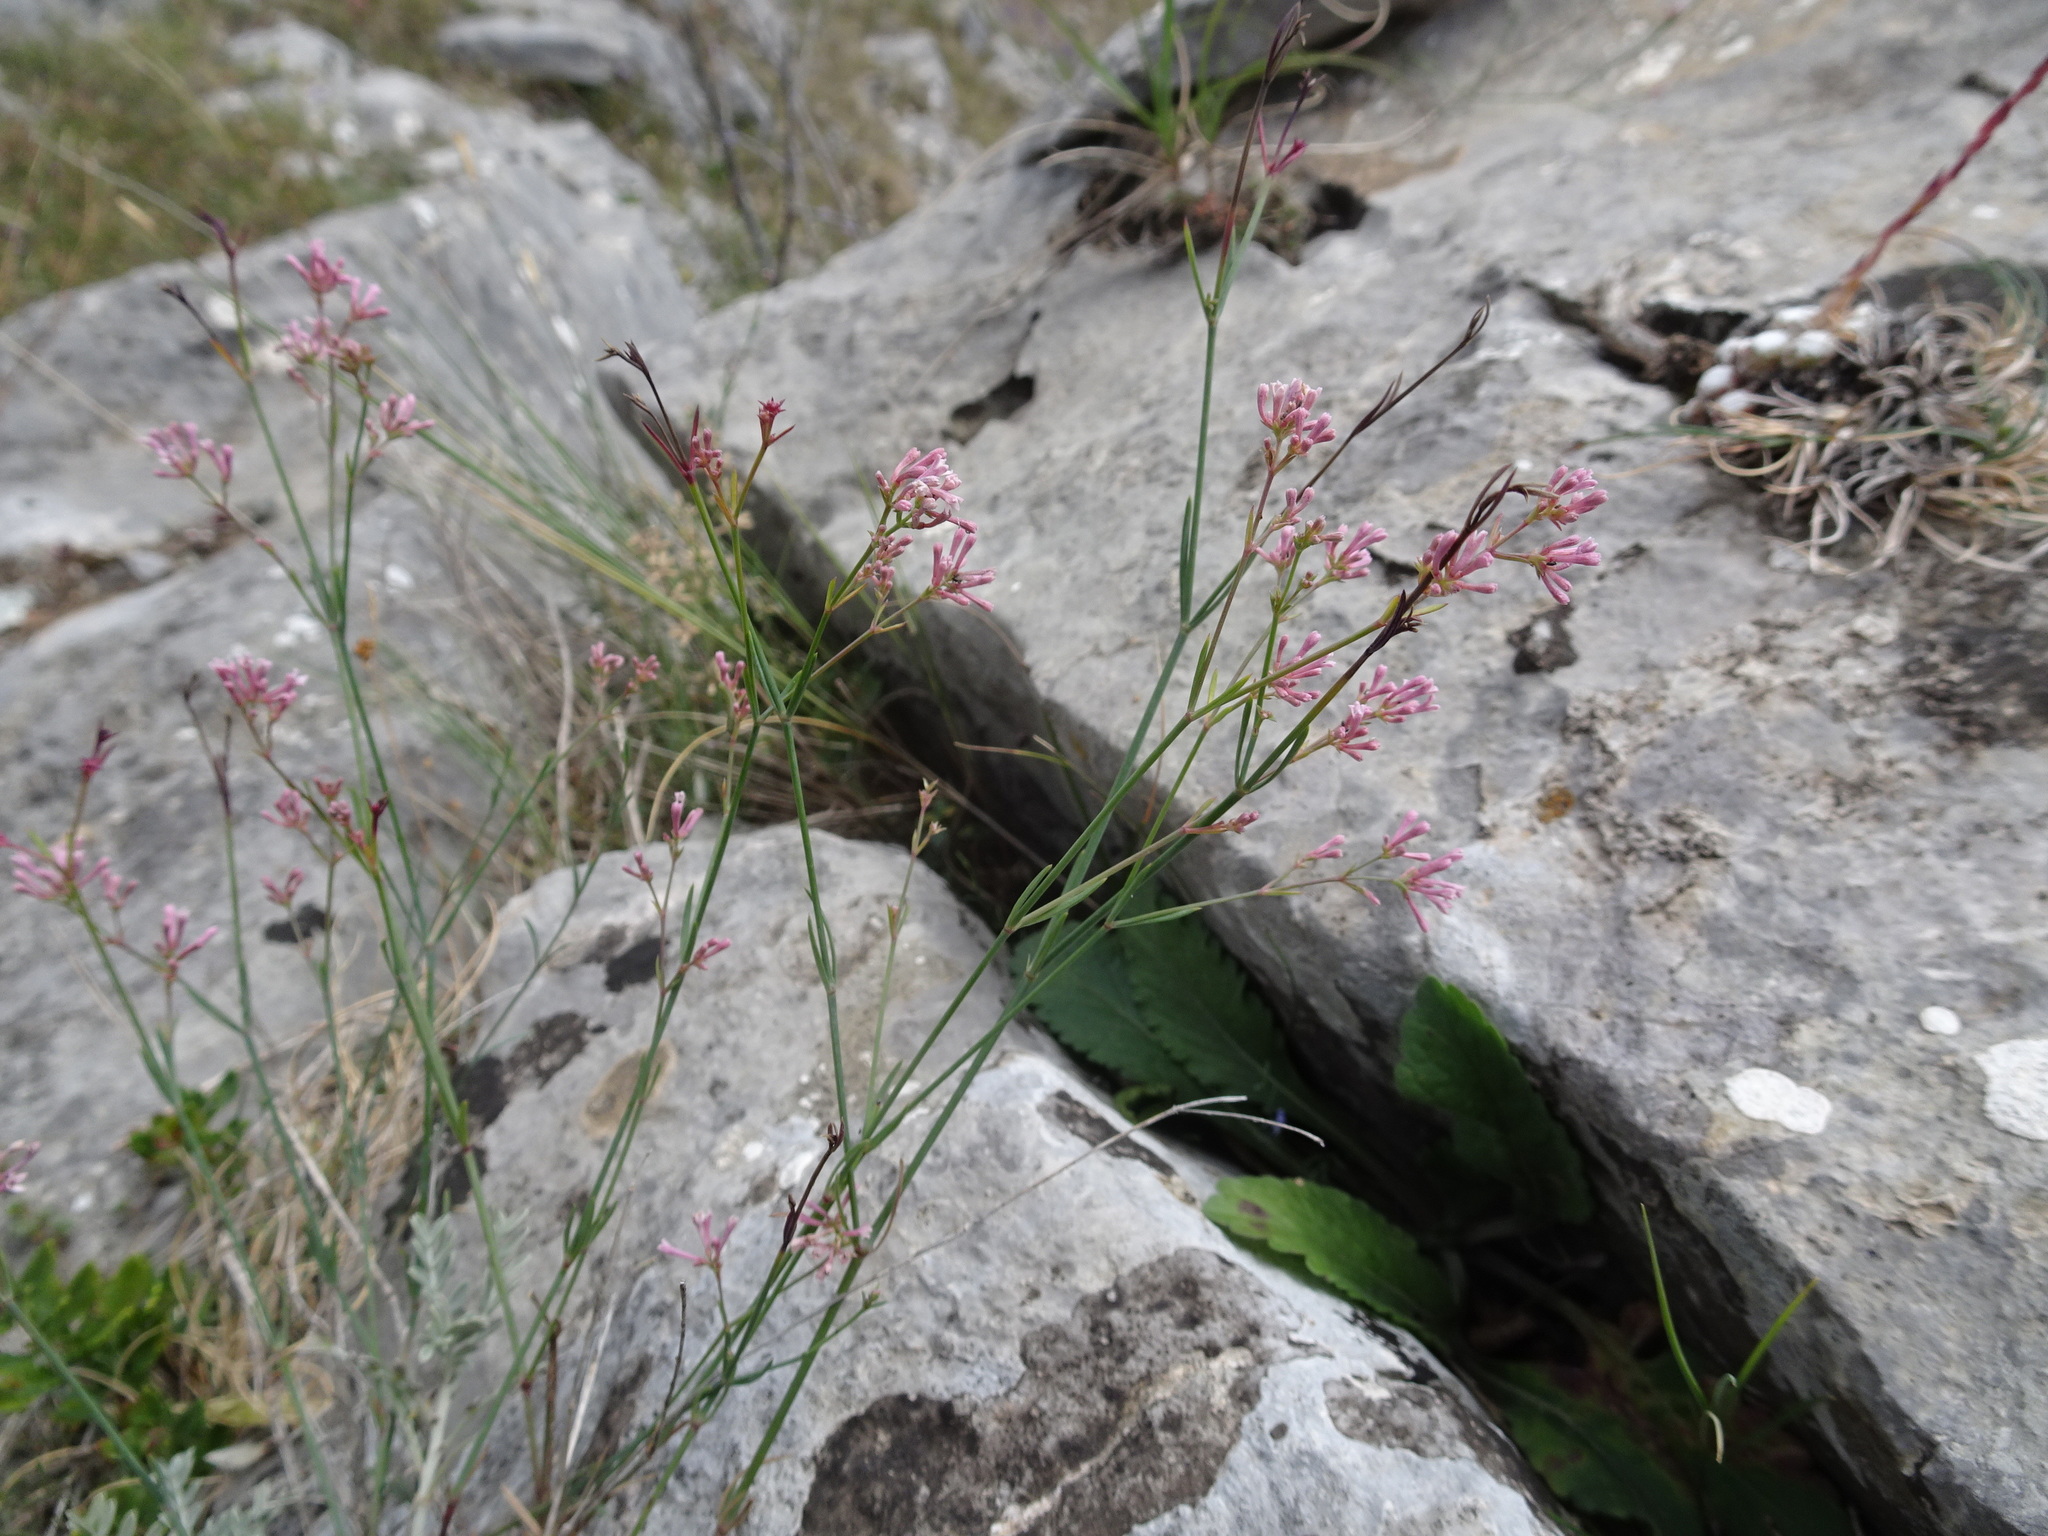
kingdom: Plantae
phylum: Tracheophyta
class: Magnoliopsida
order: Gentianales
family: Rubiaceae
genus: Cynanchica
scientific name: Cynanchica pyrenaica
